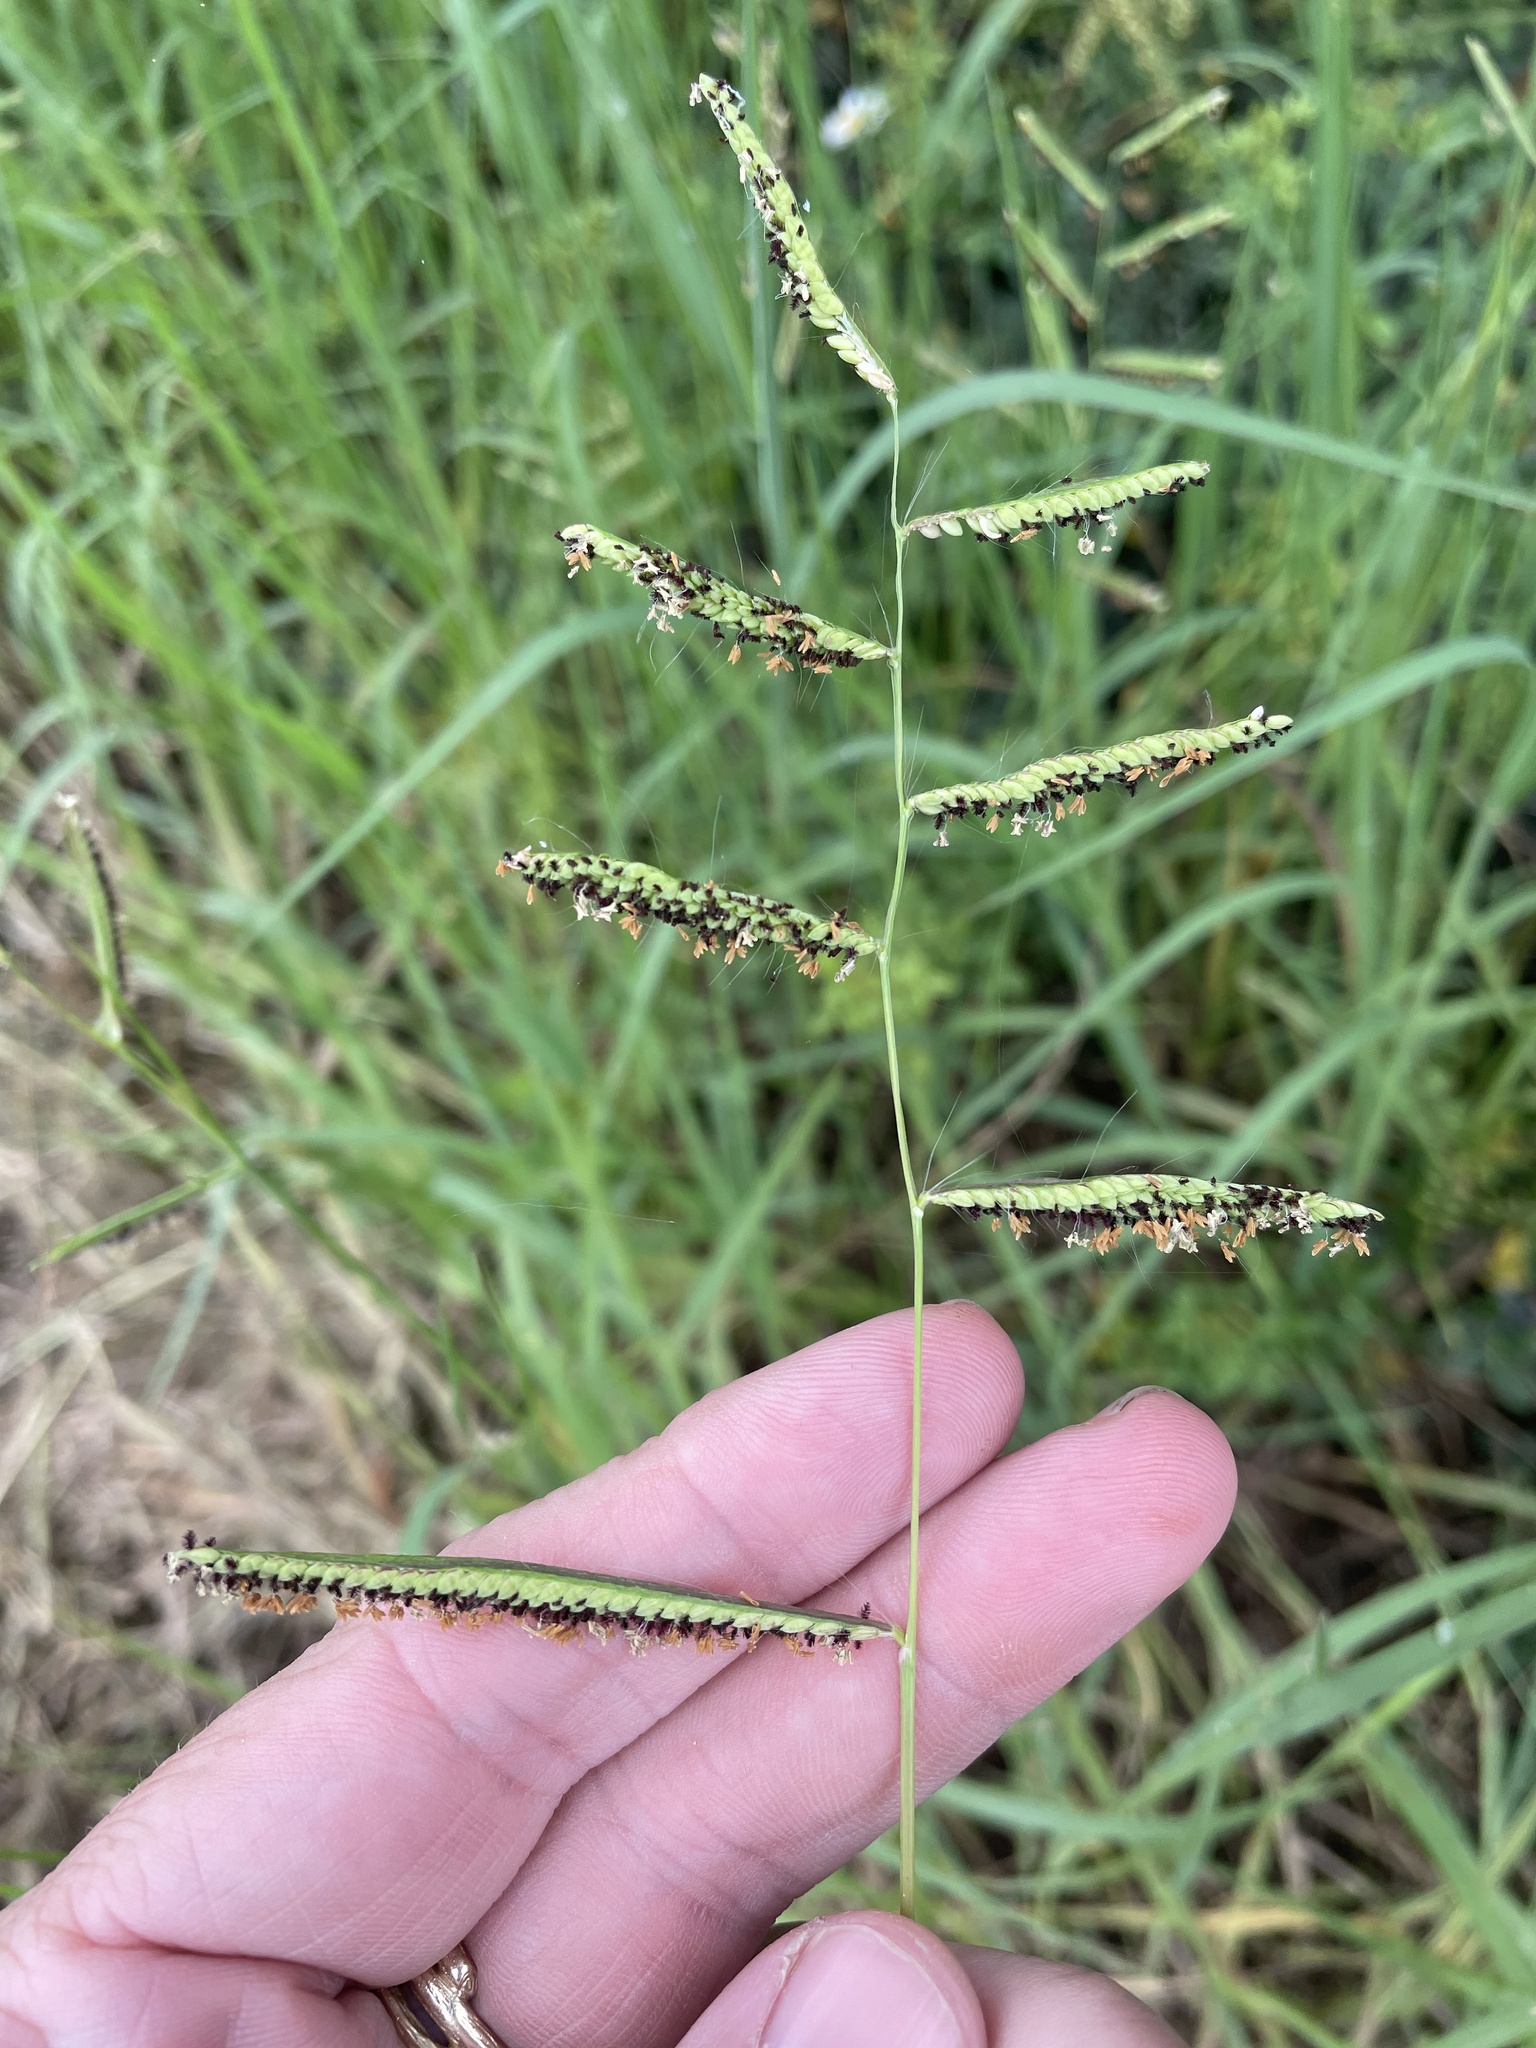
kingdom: Plantae
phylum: Tracheophyta
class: Liliopsida
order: Poales
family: Poaceae
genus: Paspalum
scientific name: Paspalum denticulatum
